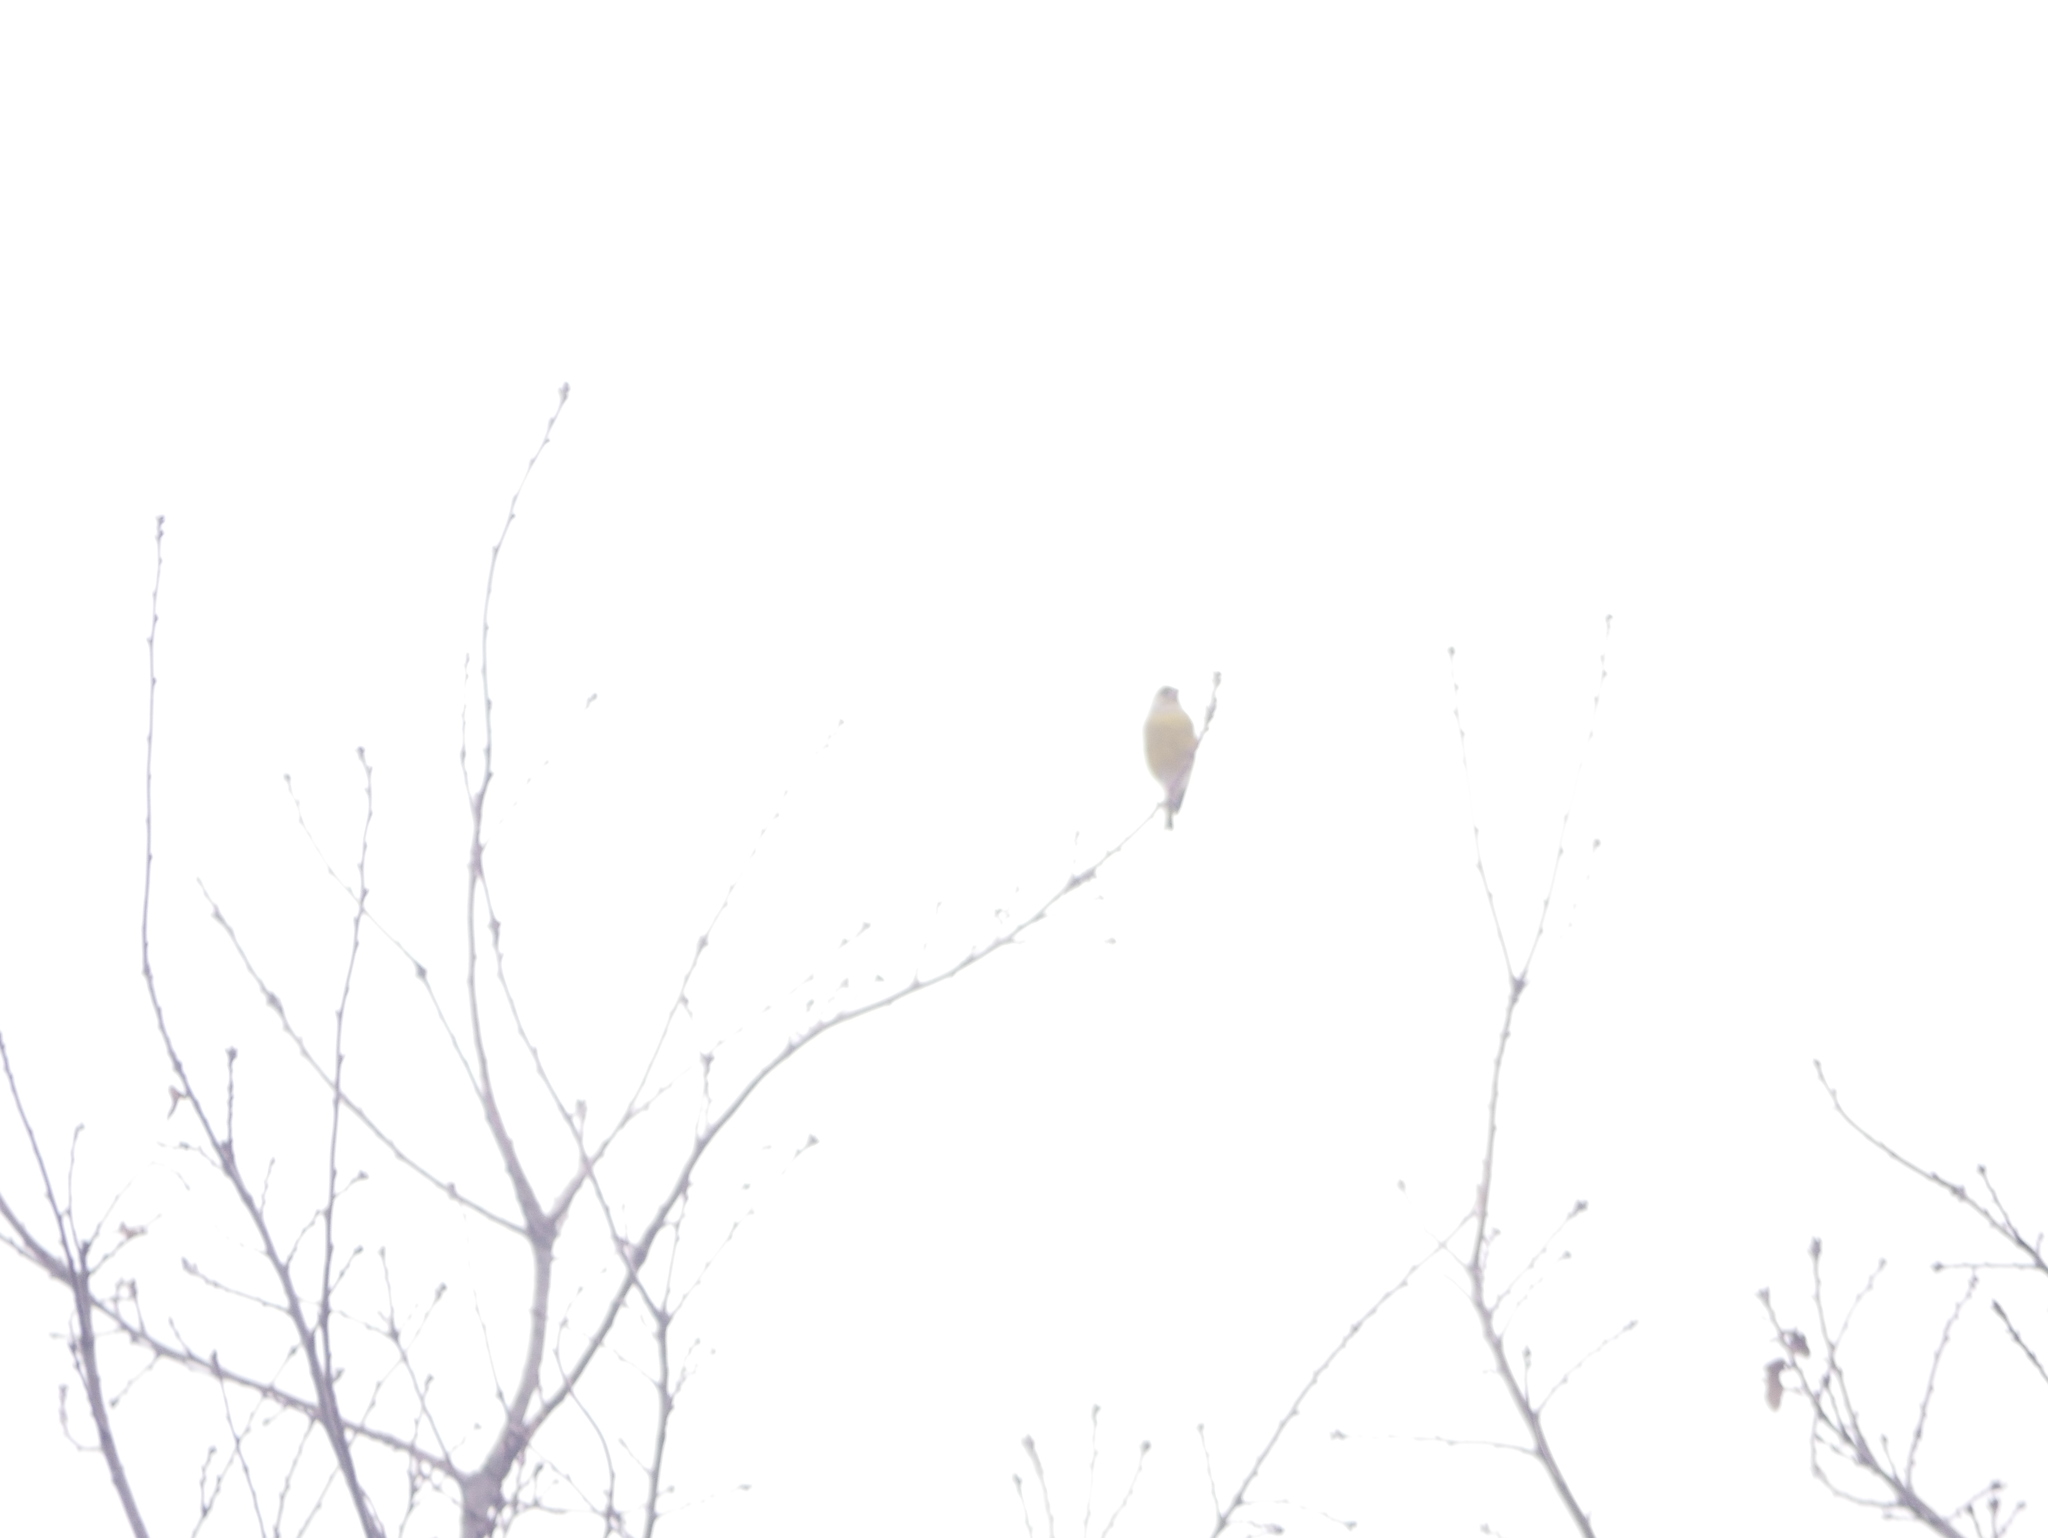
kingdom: Plantae
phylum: Tracheophyta
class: Liliopsida
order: Poales
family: Poaceae
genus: Chloris
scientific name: Chloris chloris
